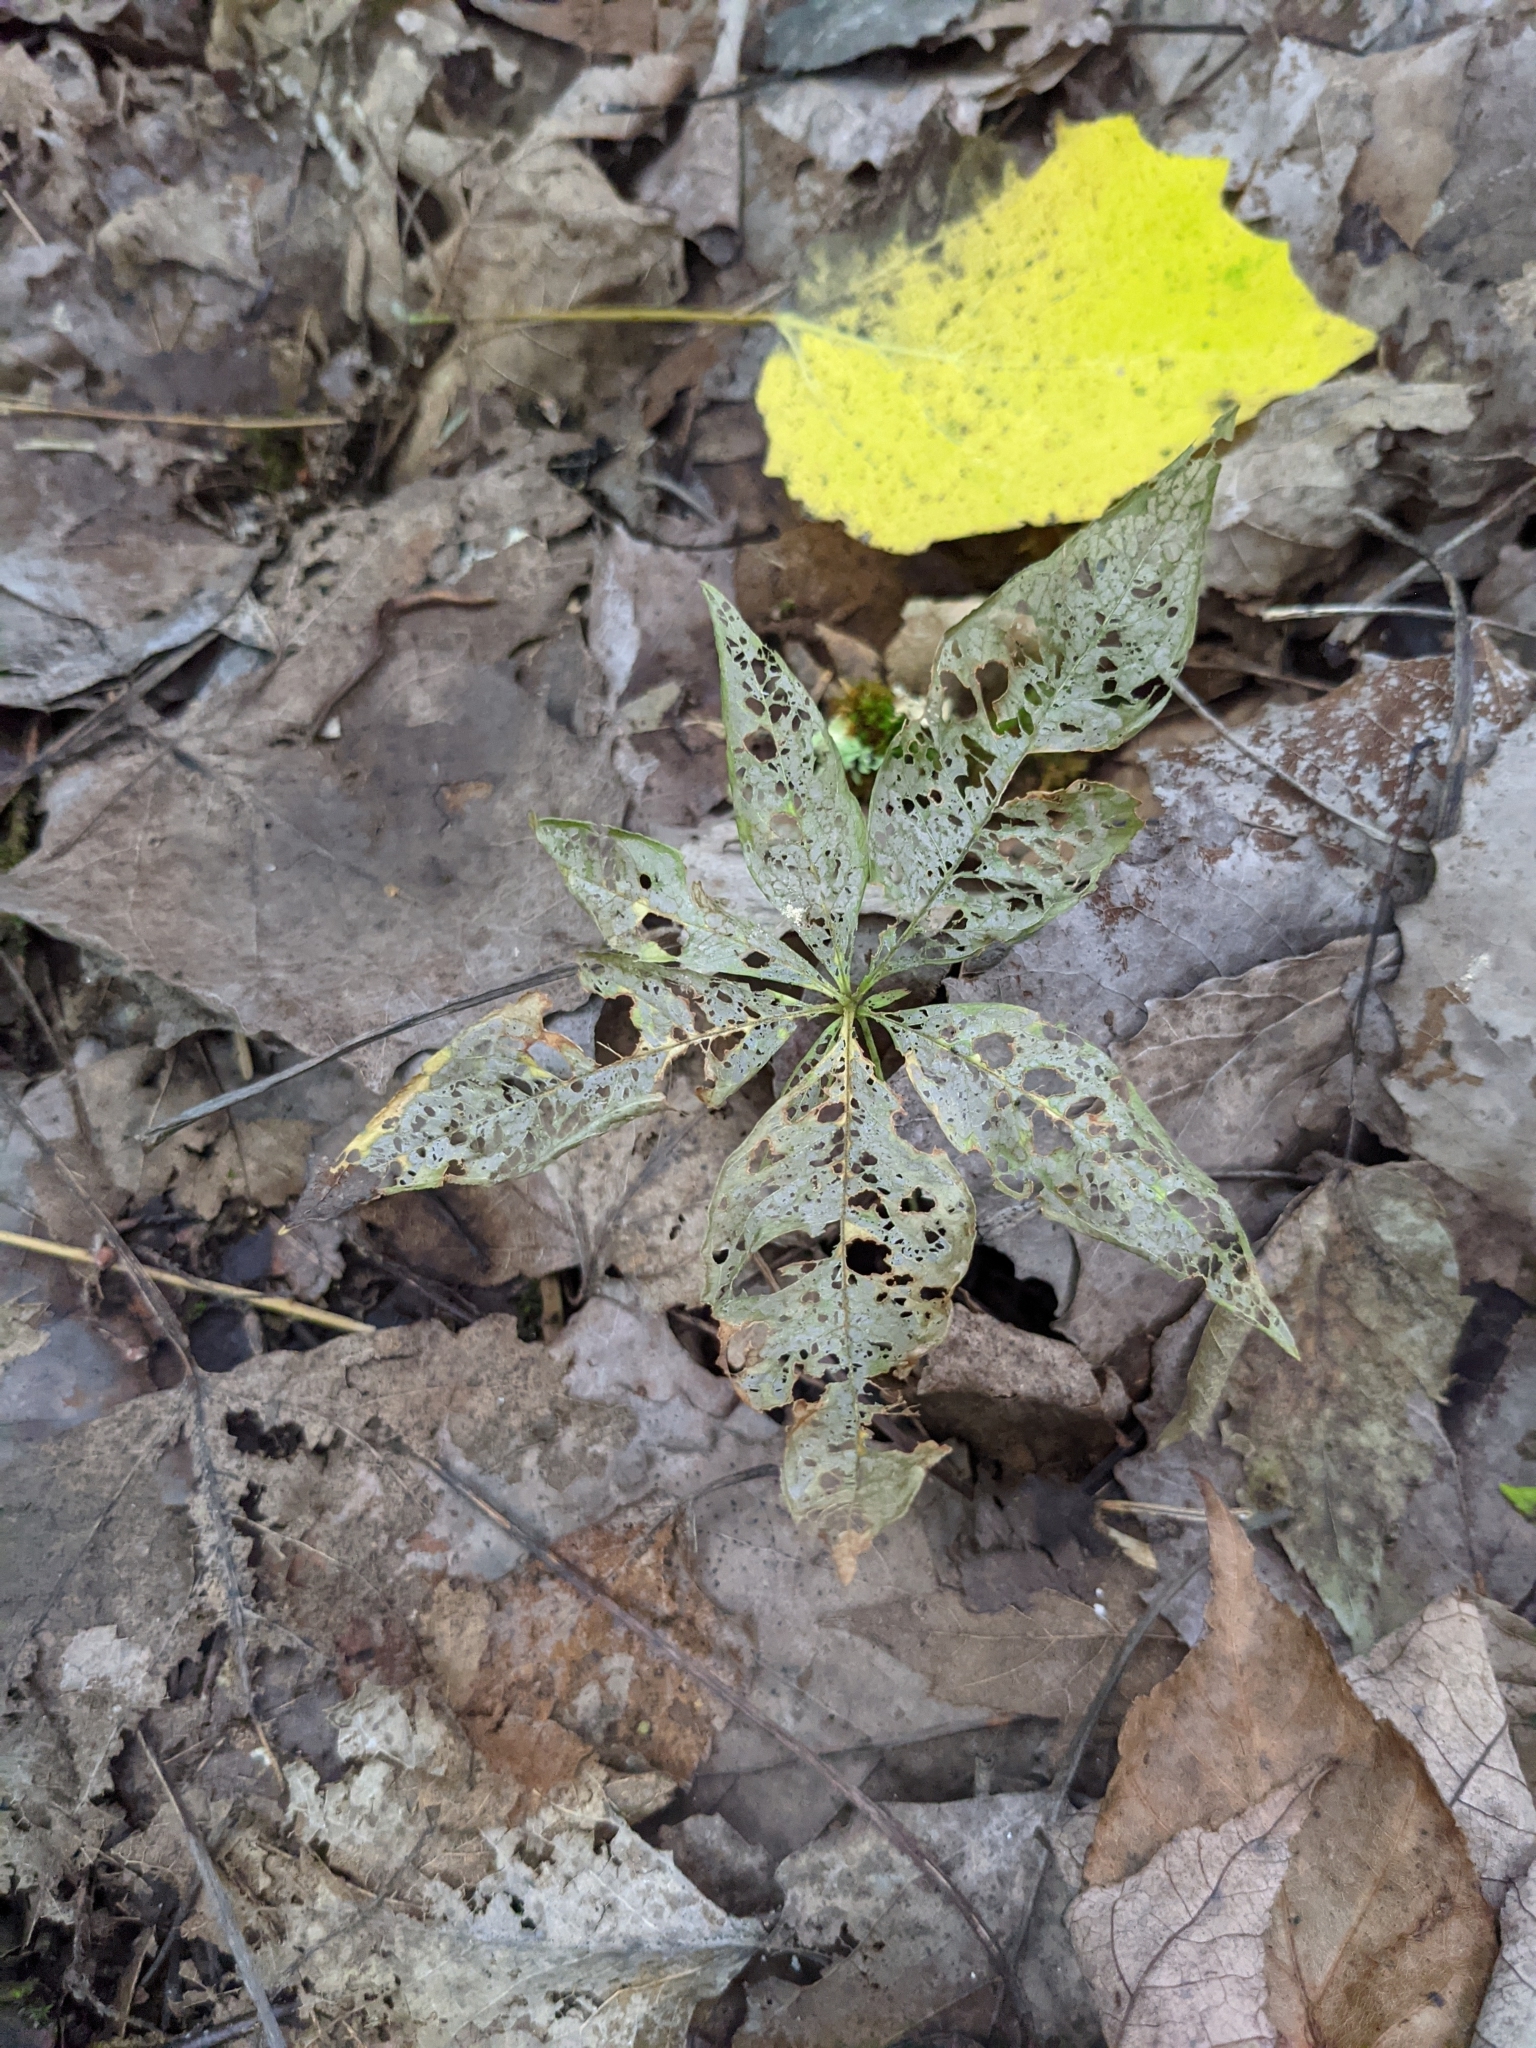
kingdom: Plantae
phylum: Tracheophyta
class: Magnoliopsida
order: Ericales
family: Primulaceae
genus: Lysimachia
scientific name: Lysimachia borealis
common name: American starflower
